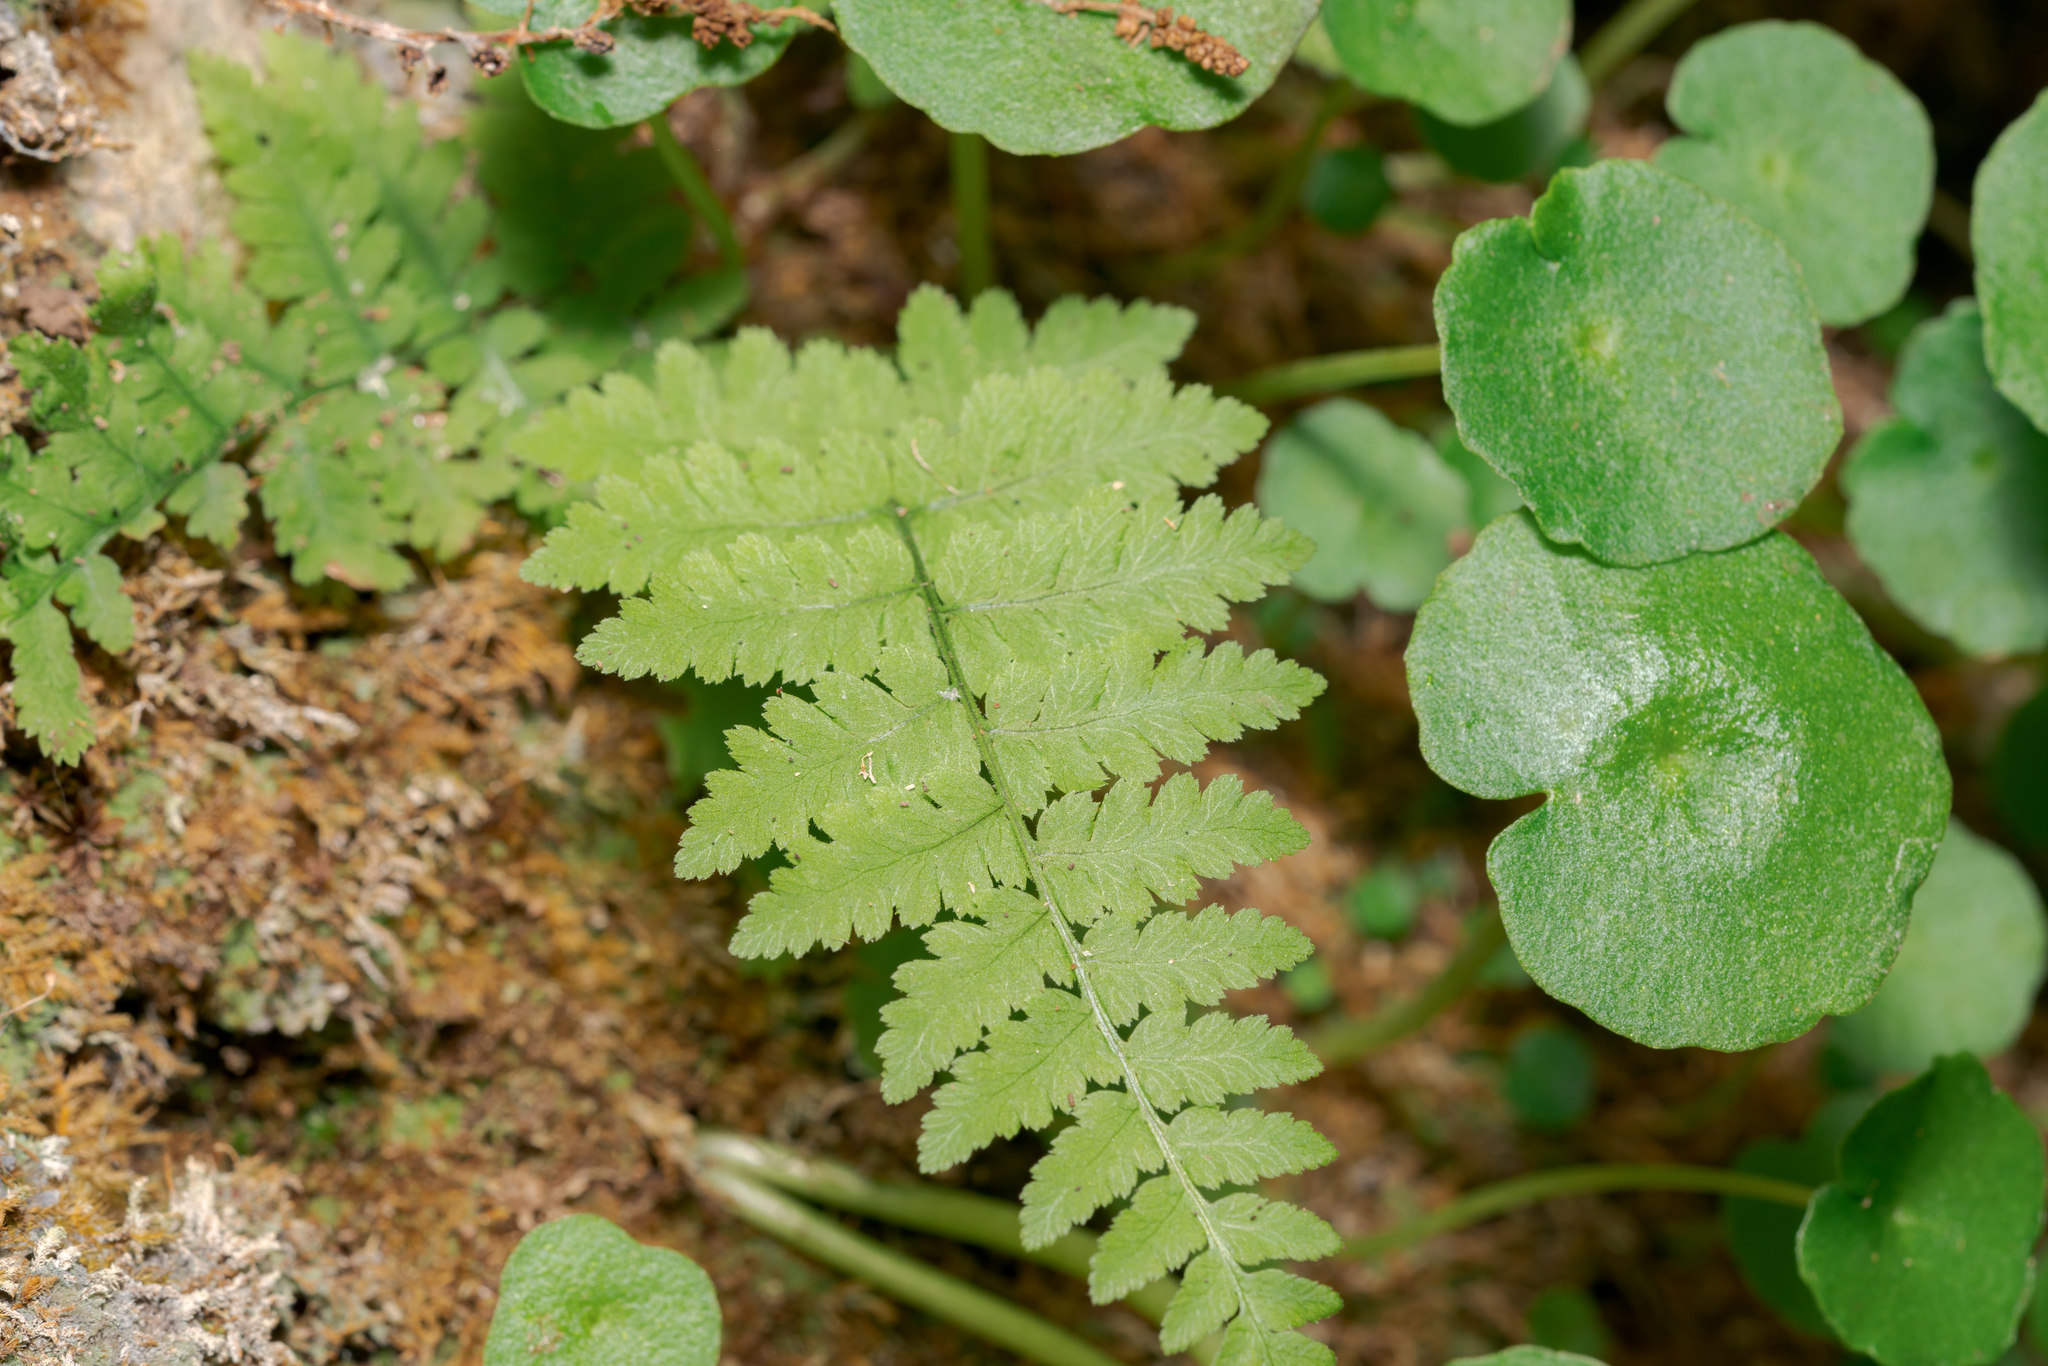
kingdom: Plantae
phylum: Tracheophyta
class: Polypodiopsida
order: Polypodiales
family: Dryopteridaceae
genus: Dryopteris
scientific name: Dryopteris pallida
